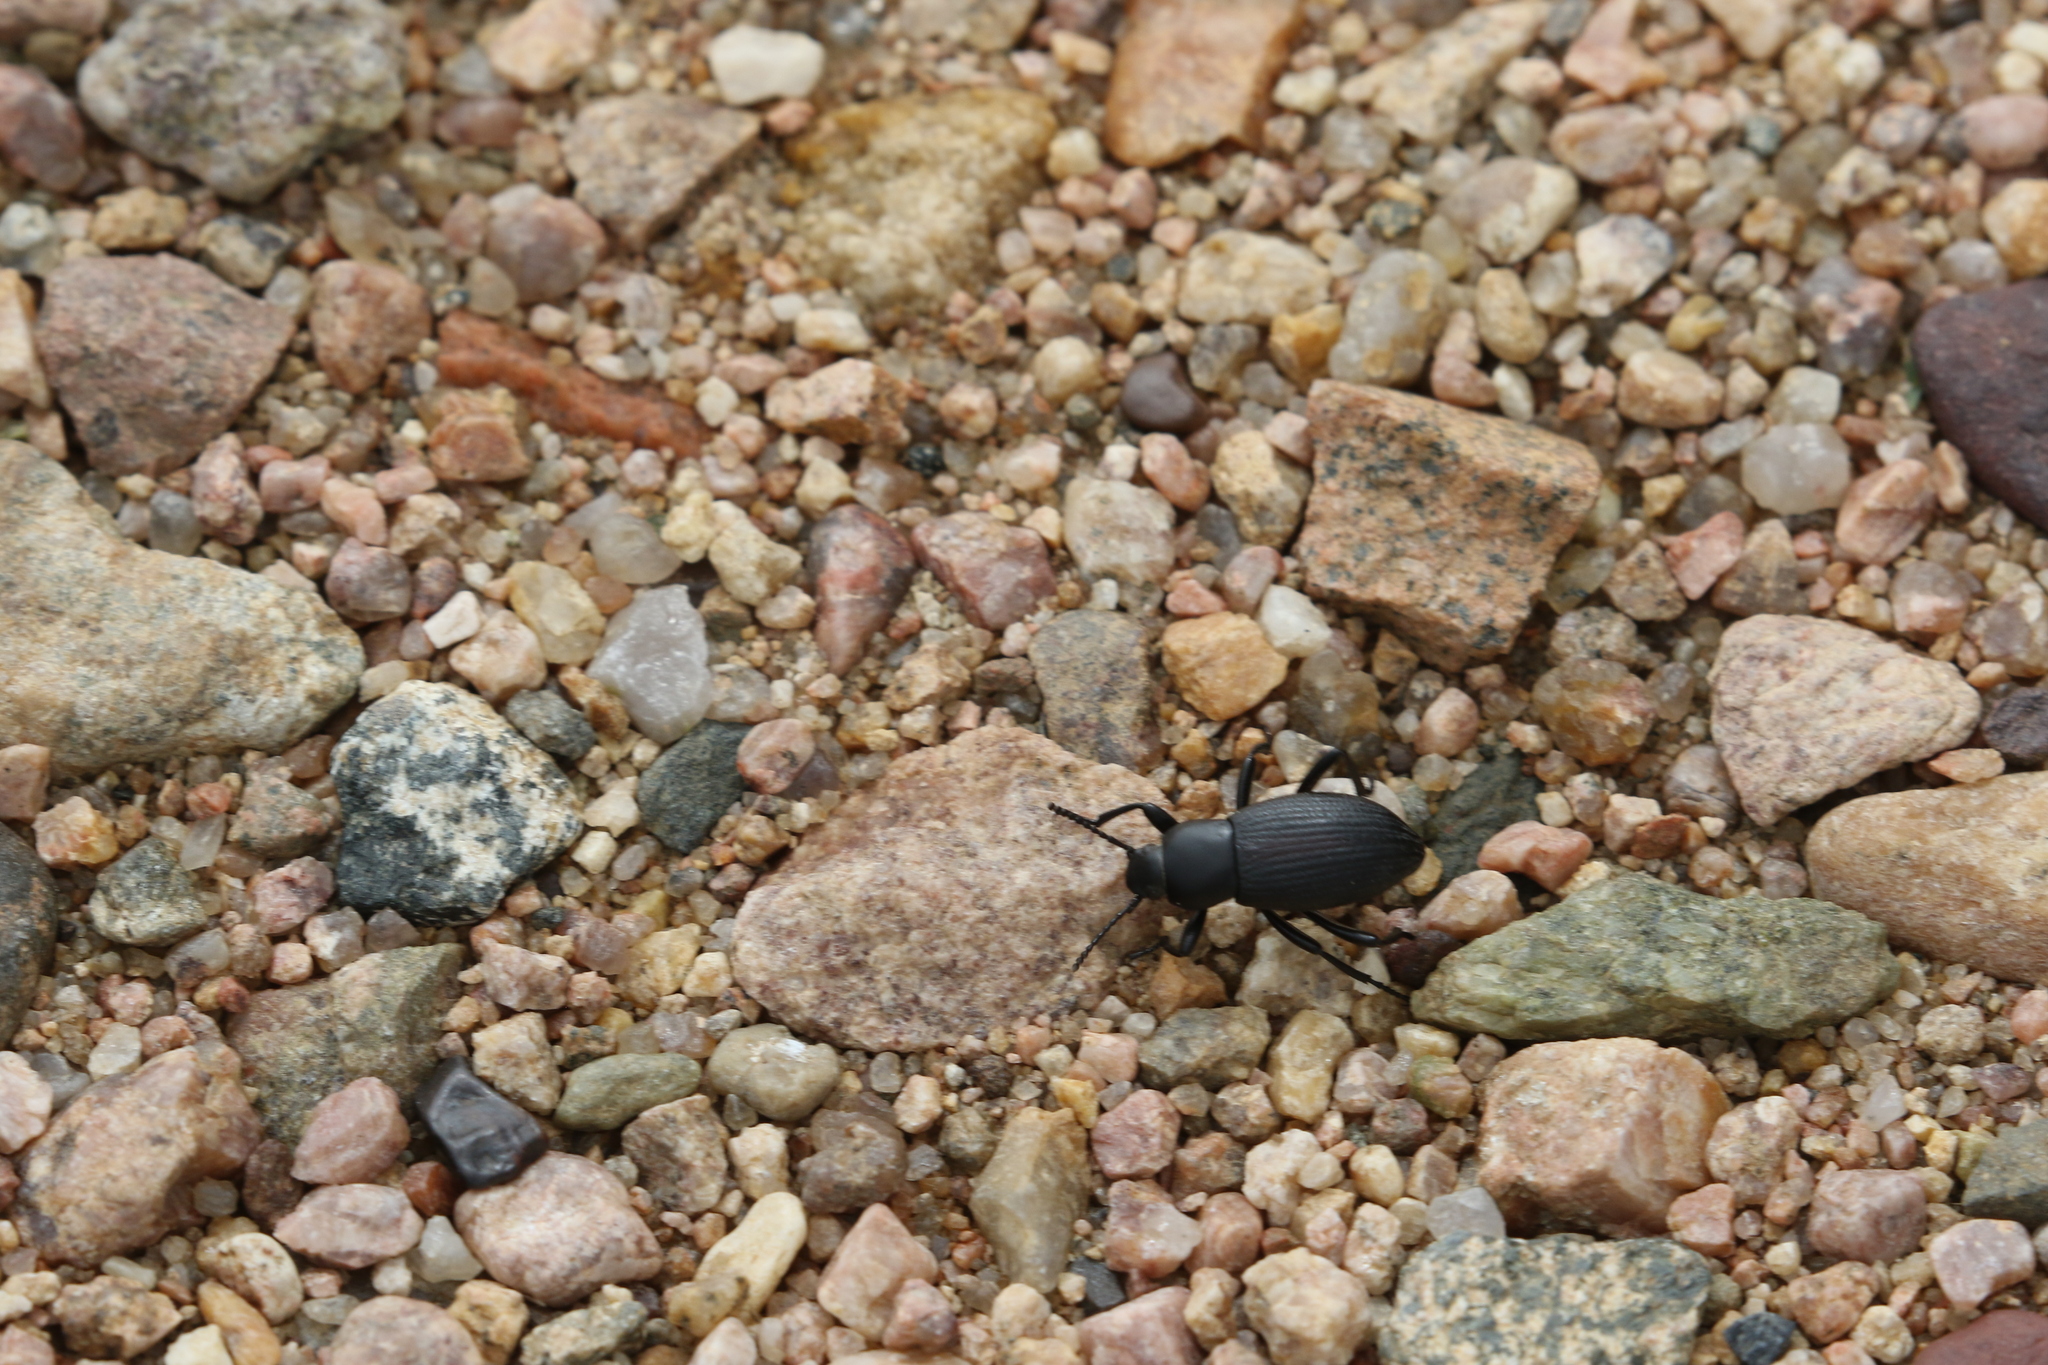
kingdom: Animalia
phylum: Arthropoda
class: Insecta
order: Coleoptera
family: Tenebrionidae
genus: Eleodes
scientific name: Eleodes carbonaria
